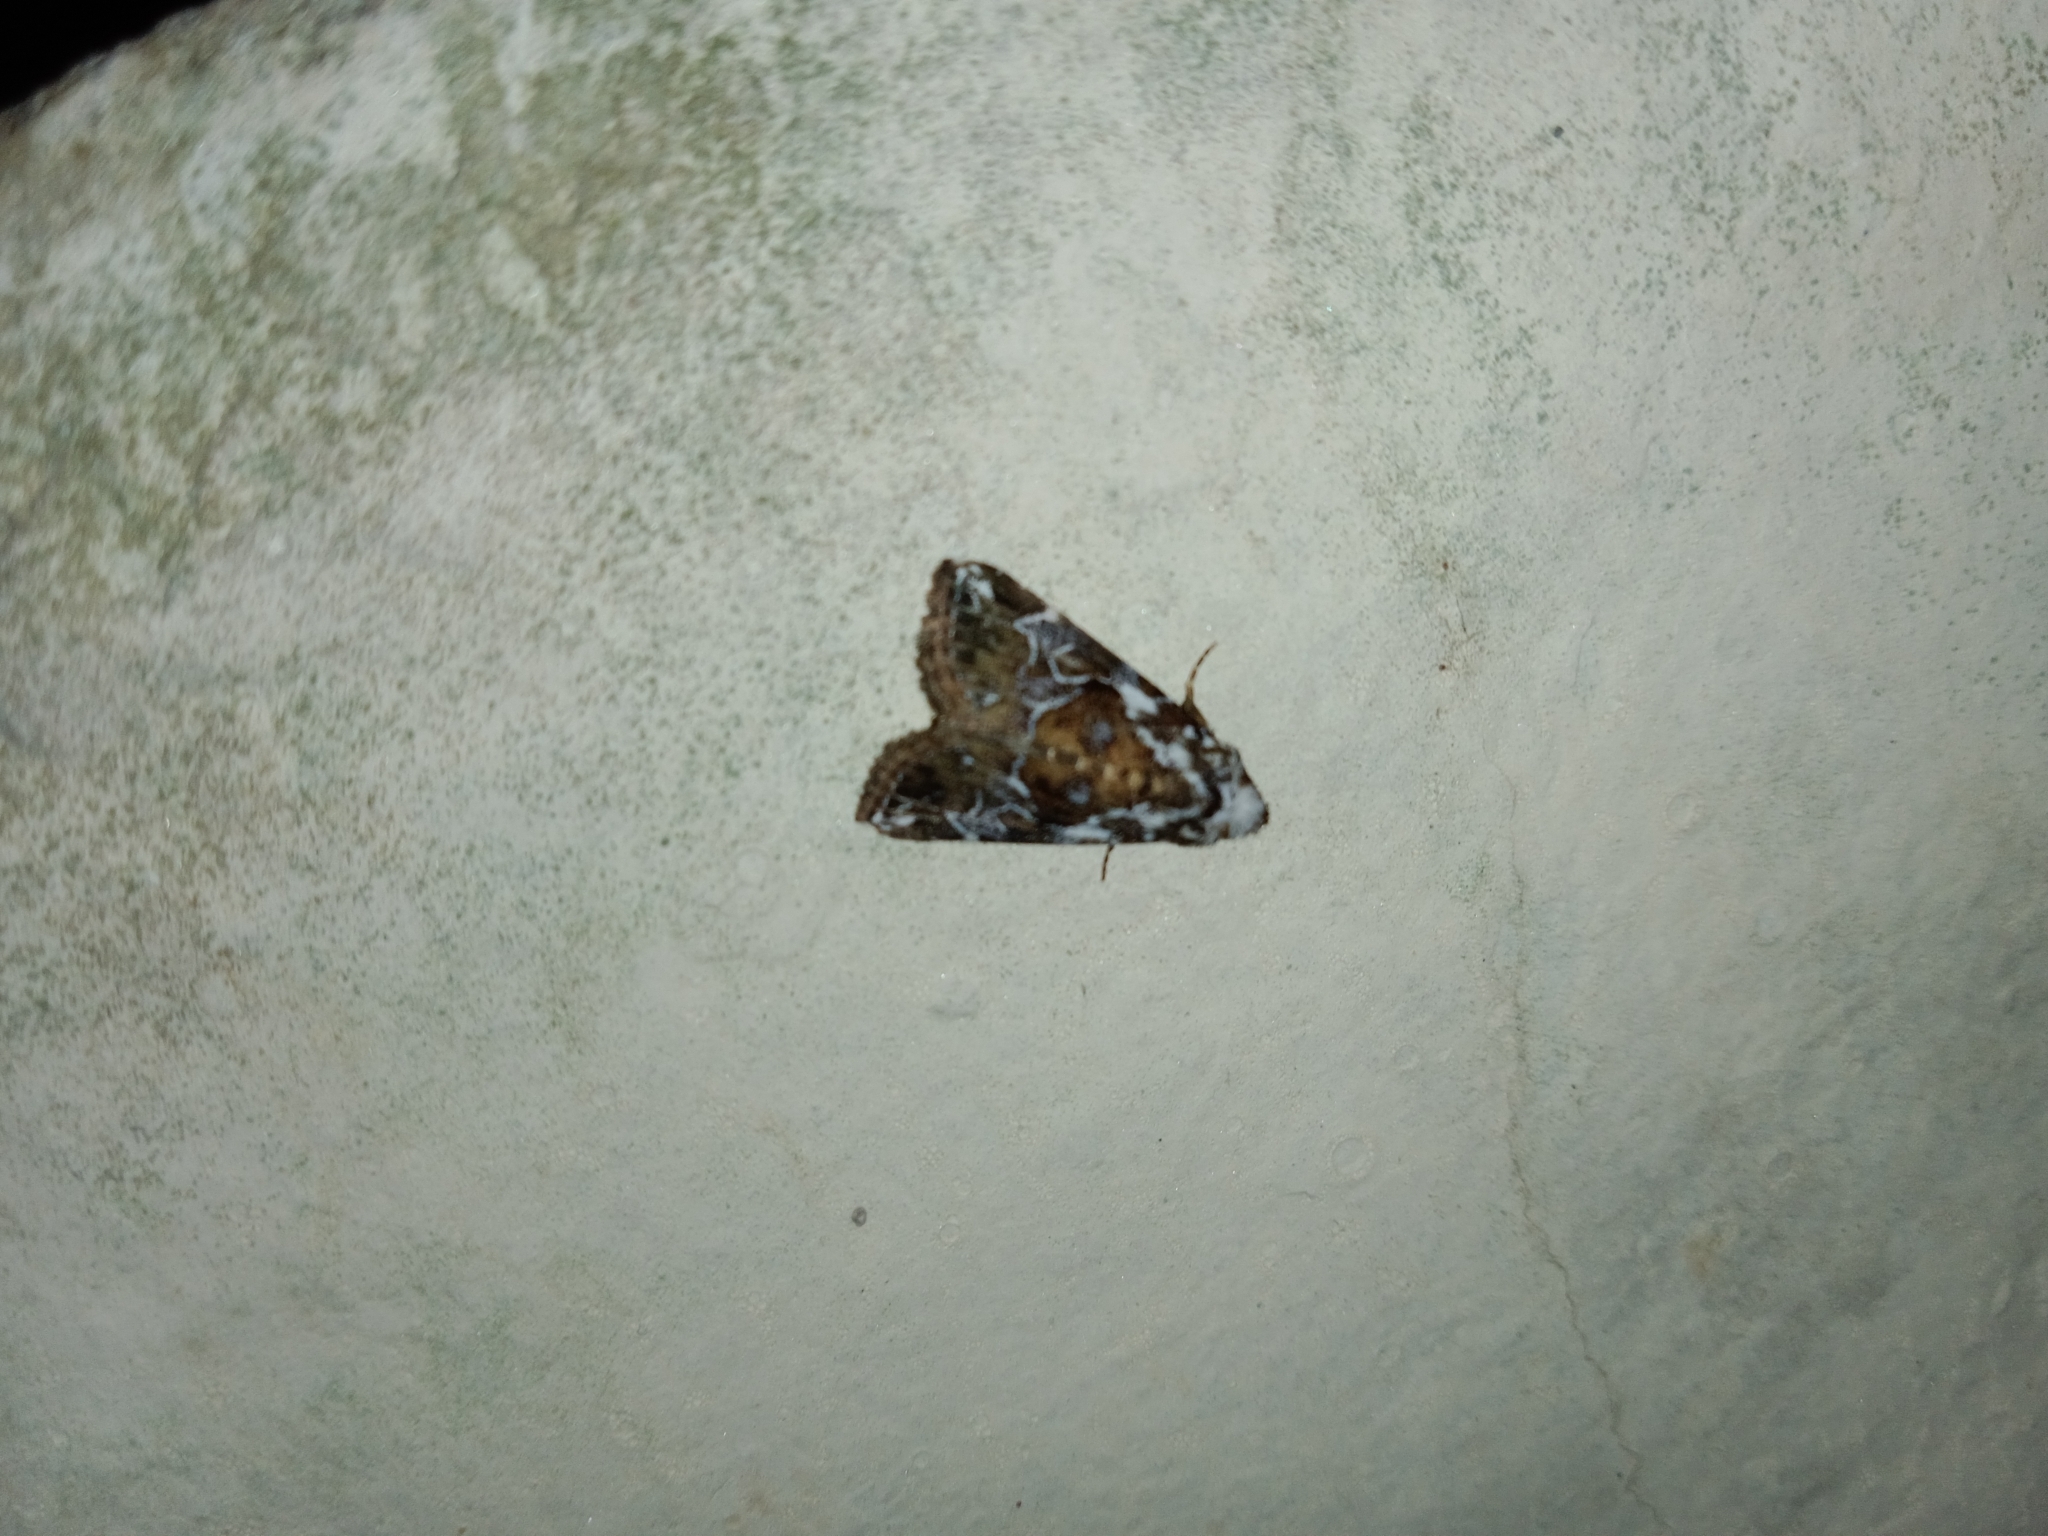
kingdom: Animalia
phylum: Arthropoda
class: Insecta
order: Lepidoptera
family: Erebidae
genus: Chorsia
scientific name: Chorsia albiscriptus
